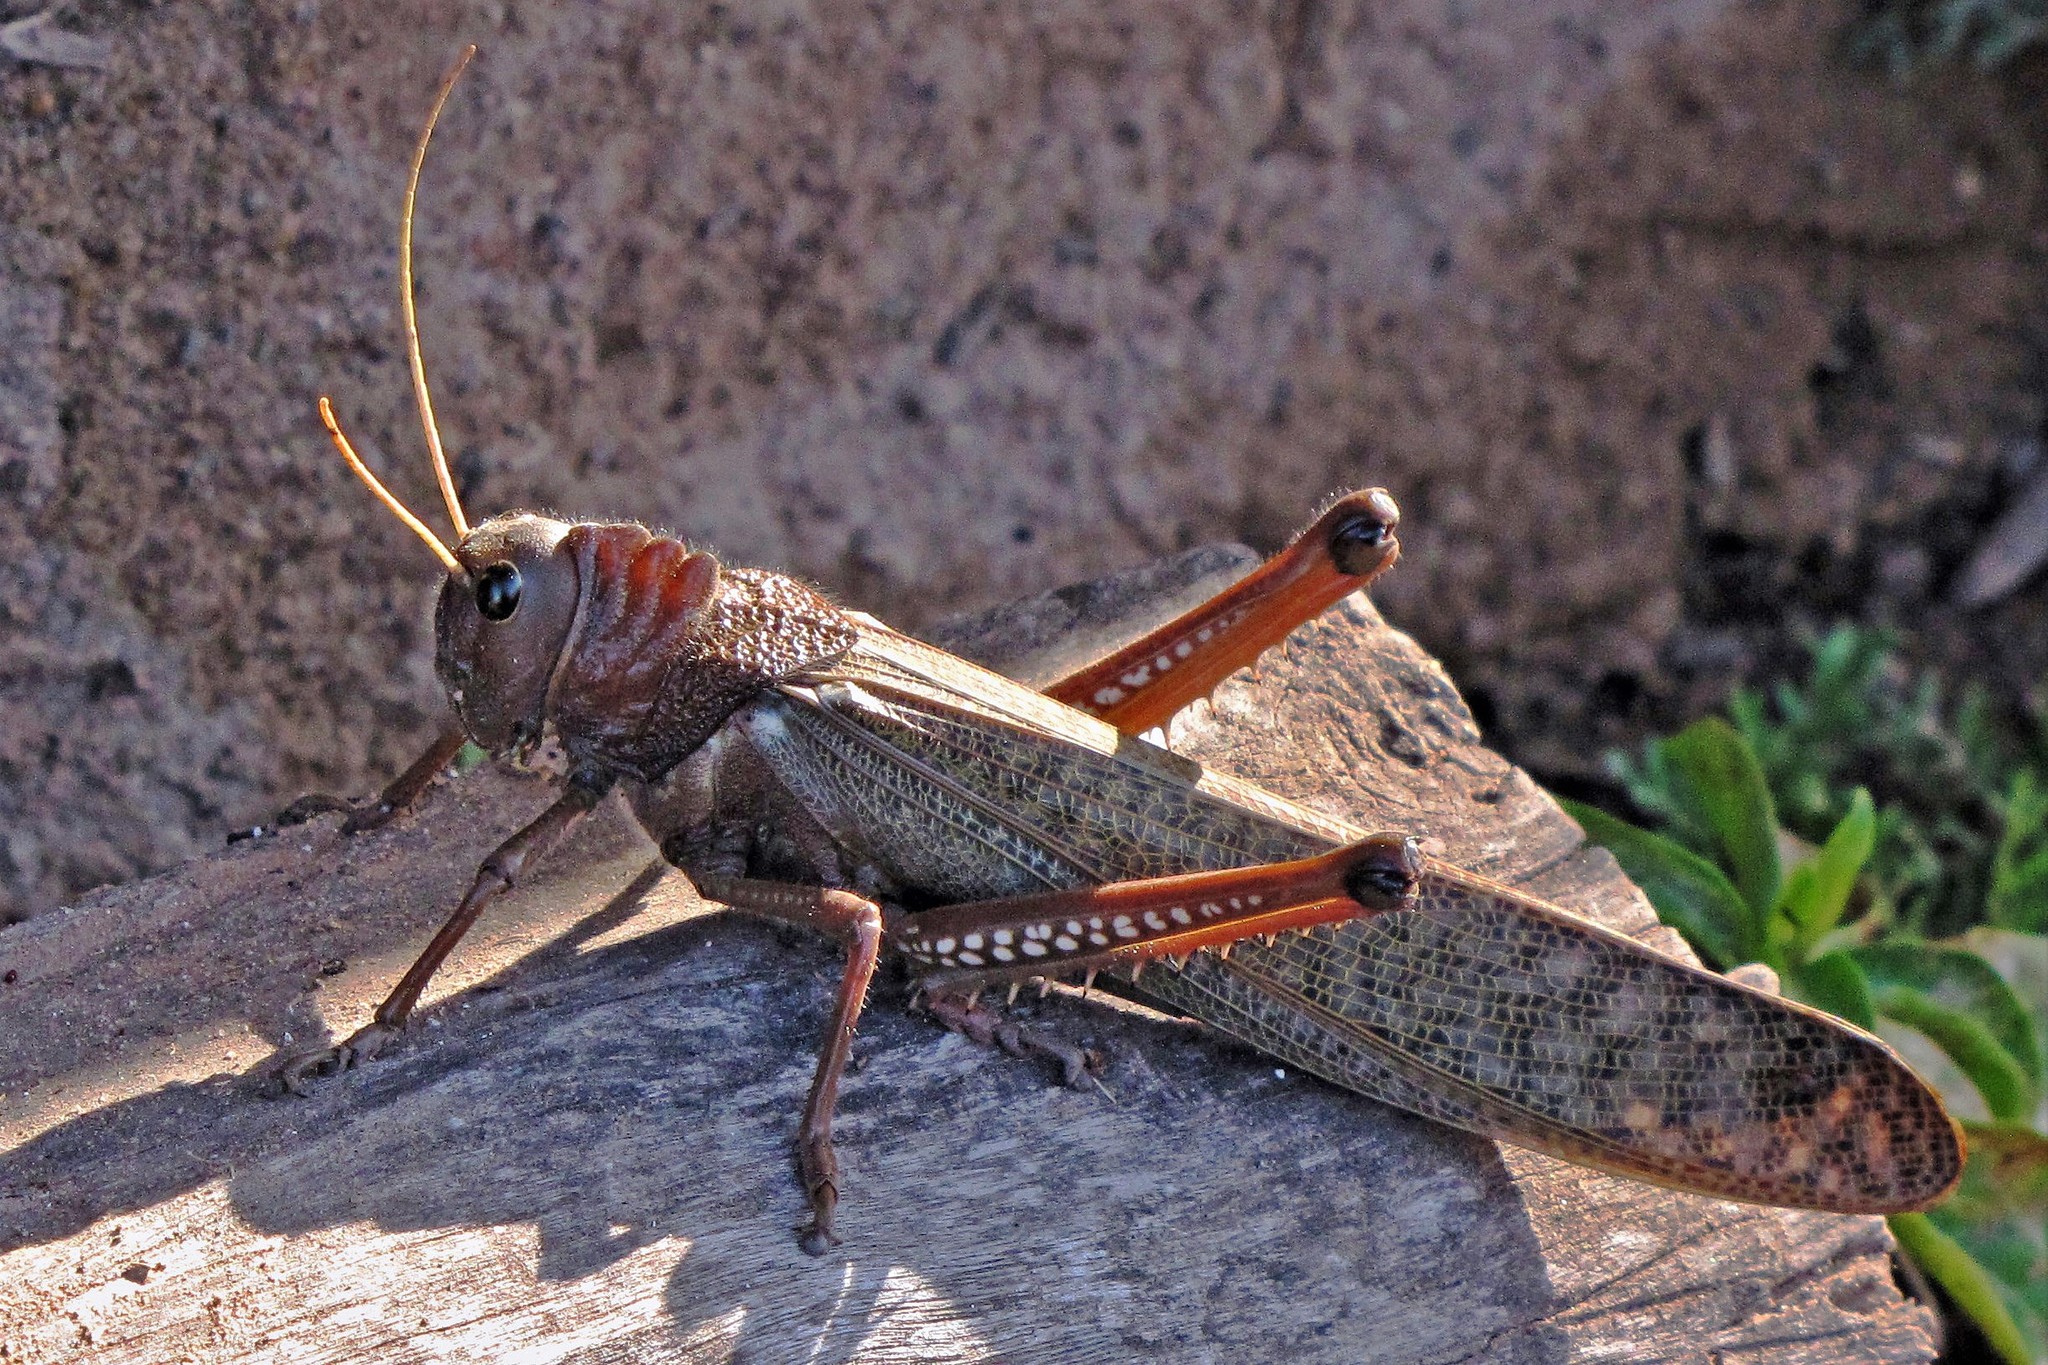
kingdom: Animalia
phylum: Arthropoda
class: Insecta
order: Orthoptera
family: Romaleidae
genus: Tropidacris
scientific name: Tropidacris collaris
